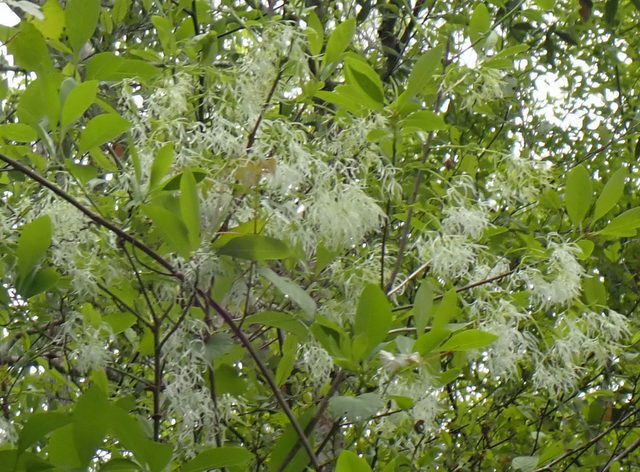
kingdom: Plantae
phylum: Tracheophyta
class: Magnoliopsida
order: Lamiales
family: Oleaceae
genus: Chionanthus
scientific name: Chionanthus virginicus
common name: American fringetree
